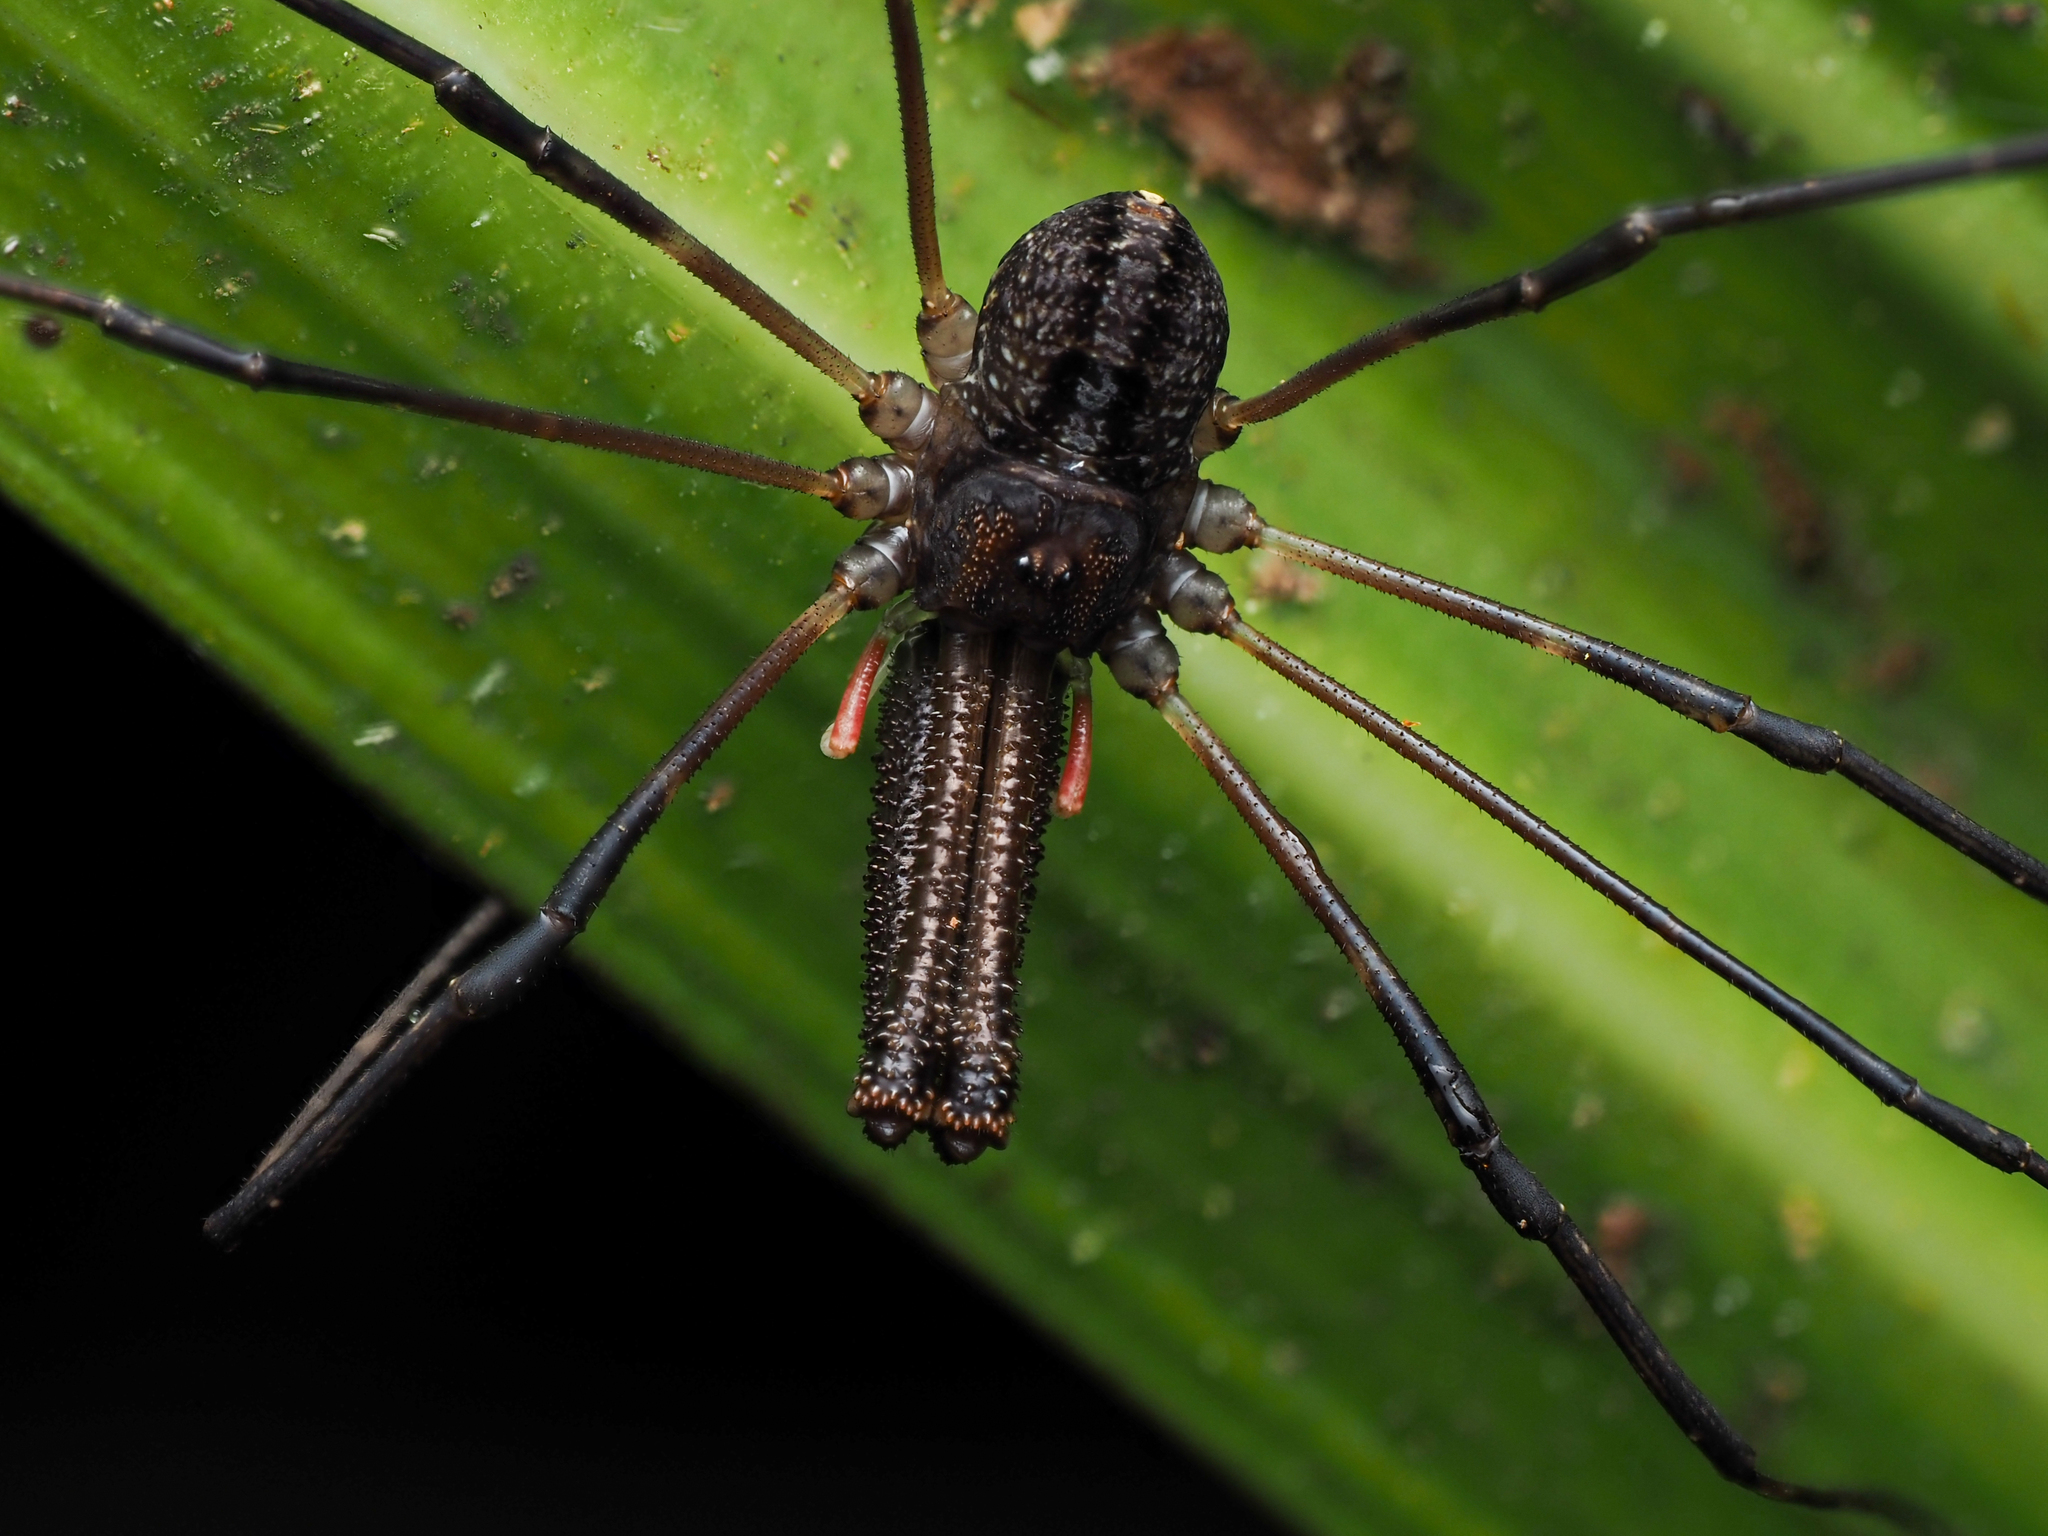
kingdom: Animalia
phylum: Arthropoda
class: Arachnida
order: Opiliones
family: Neopilionidae
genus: Forsteropsalis
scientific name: Forsteropsalis inconstans
